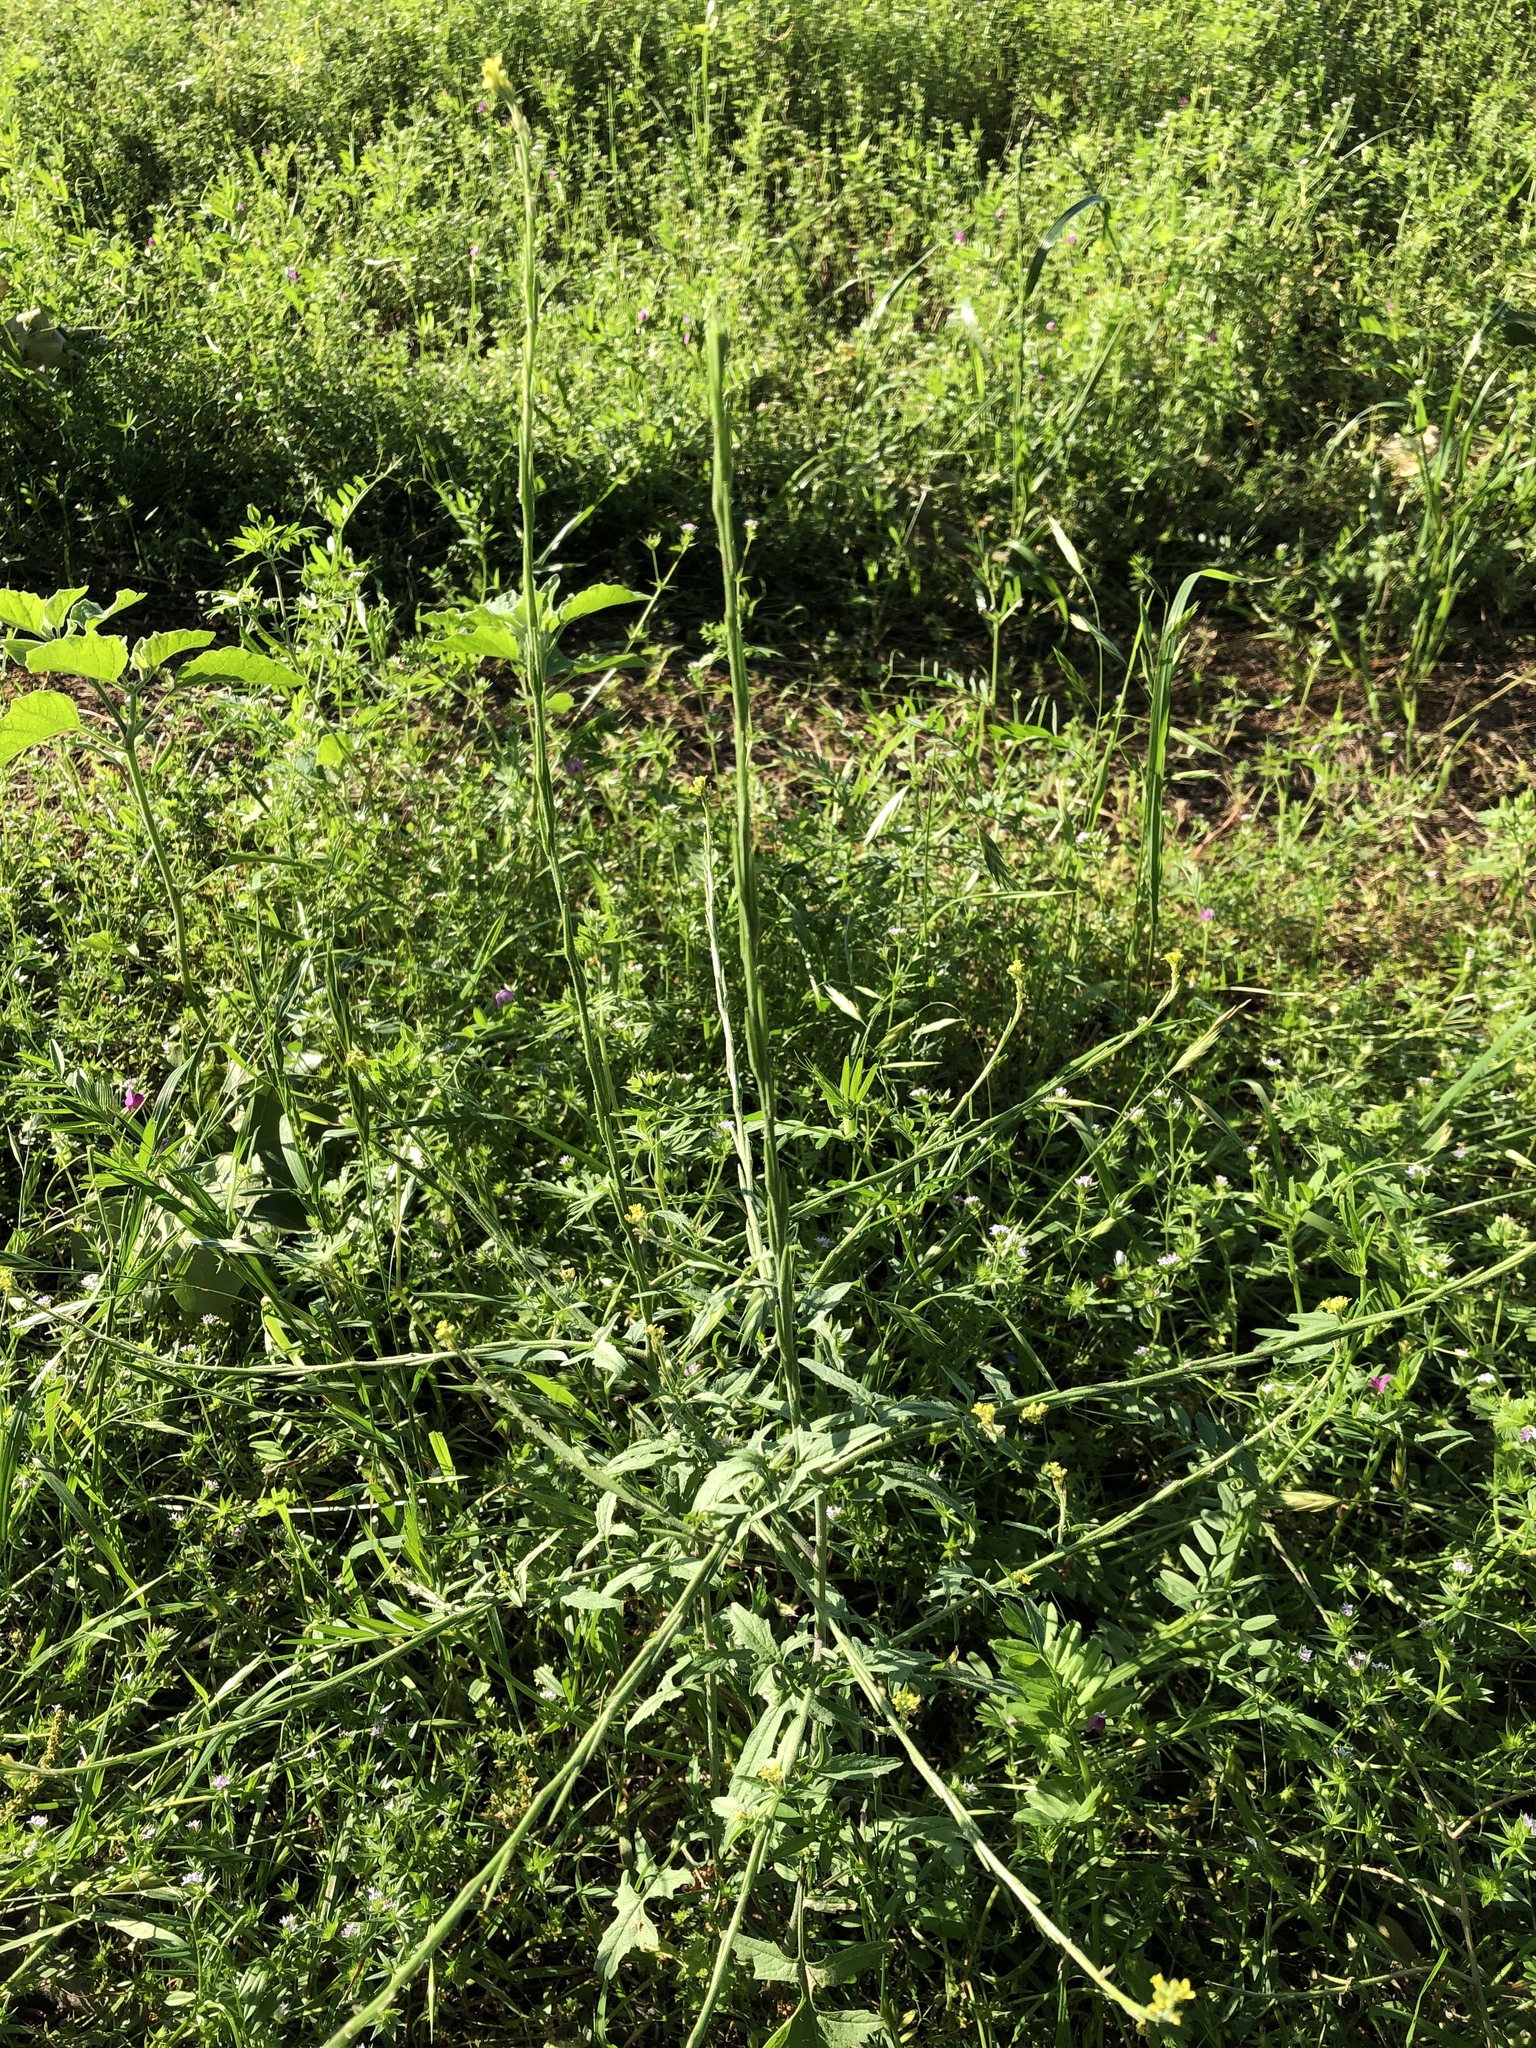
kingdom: Plantae
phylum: Tracheophyta
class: Magnoliopsida
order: Brassicales
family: Brassicaceae
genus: Sisymbrium
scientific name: Sisymbrium officinale
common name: Hedge mustard
